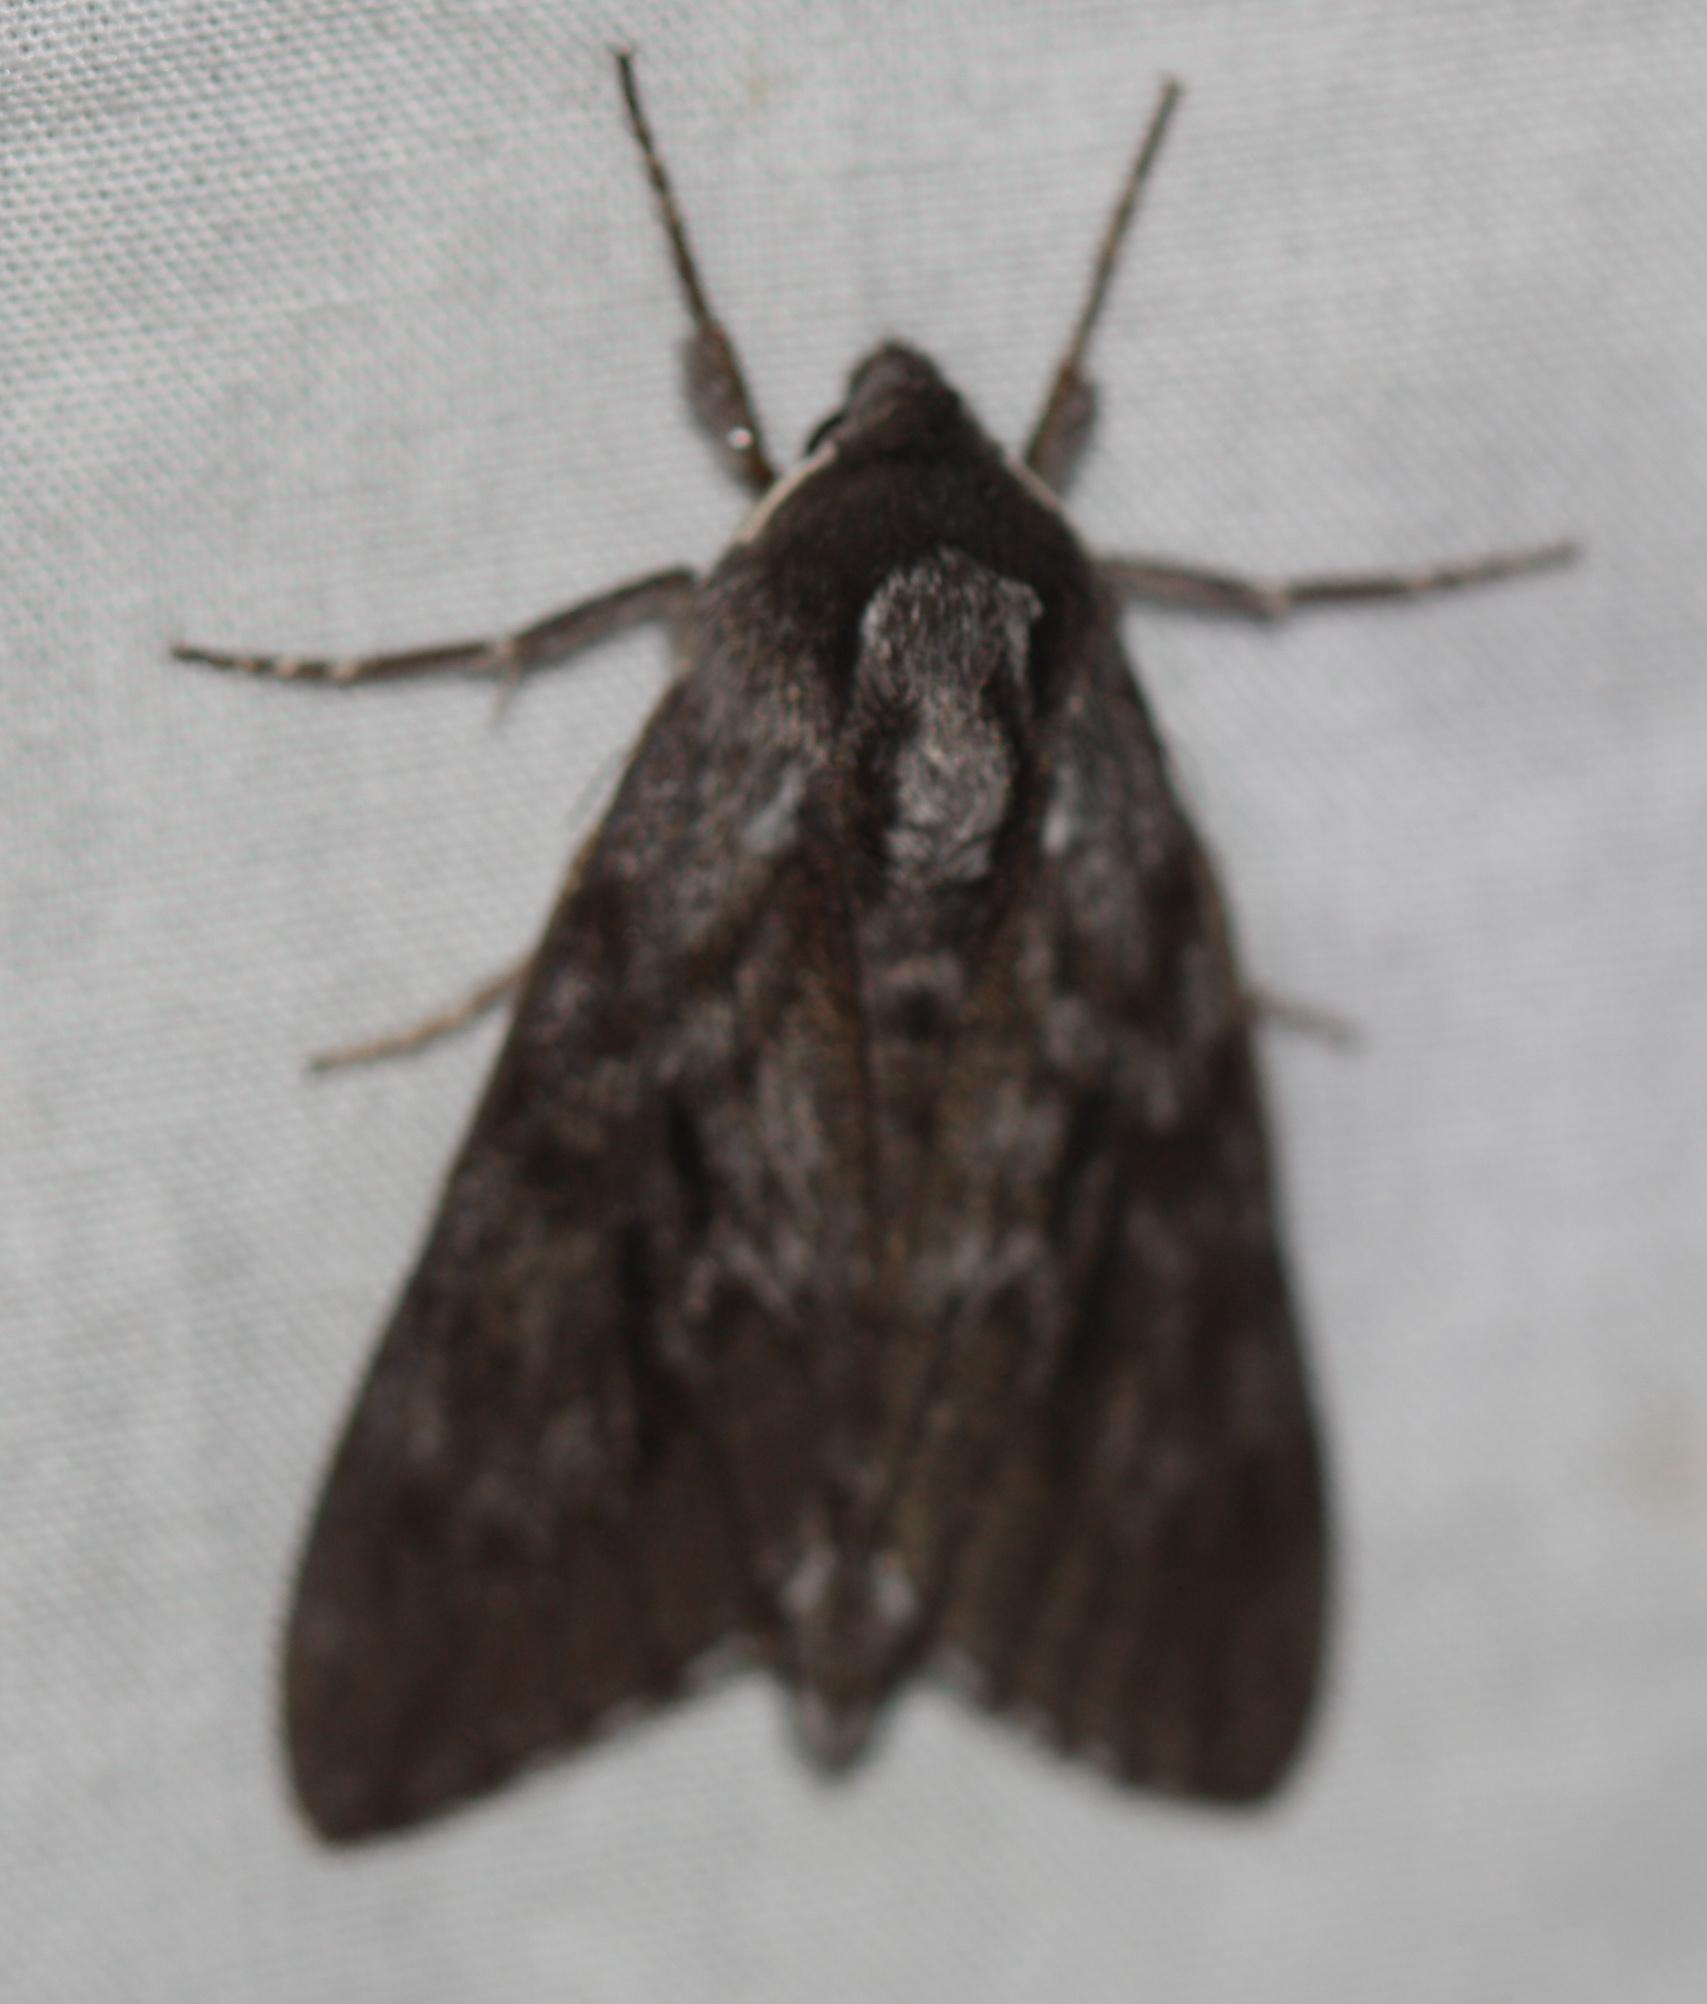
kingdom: Animalia
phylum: Arthropoda
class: Insecta
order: Lepidoptera
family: Sphingidae
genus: Lapara
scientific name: Lapara bombycoides
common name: Northern pine sphinx
